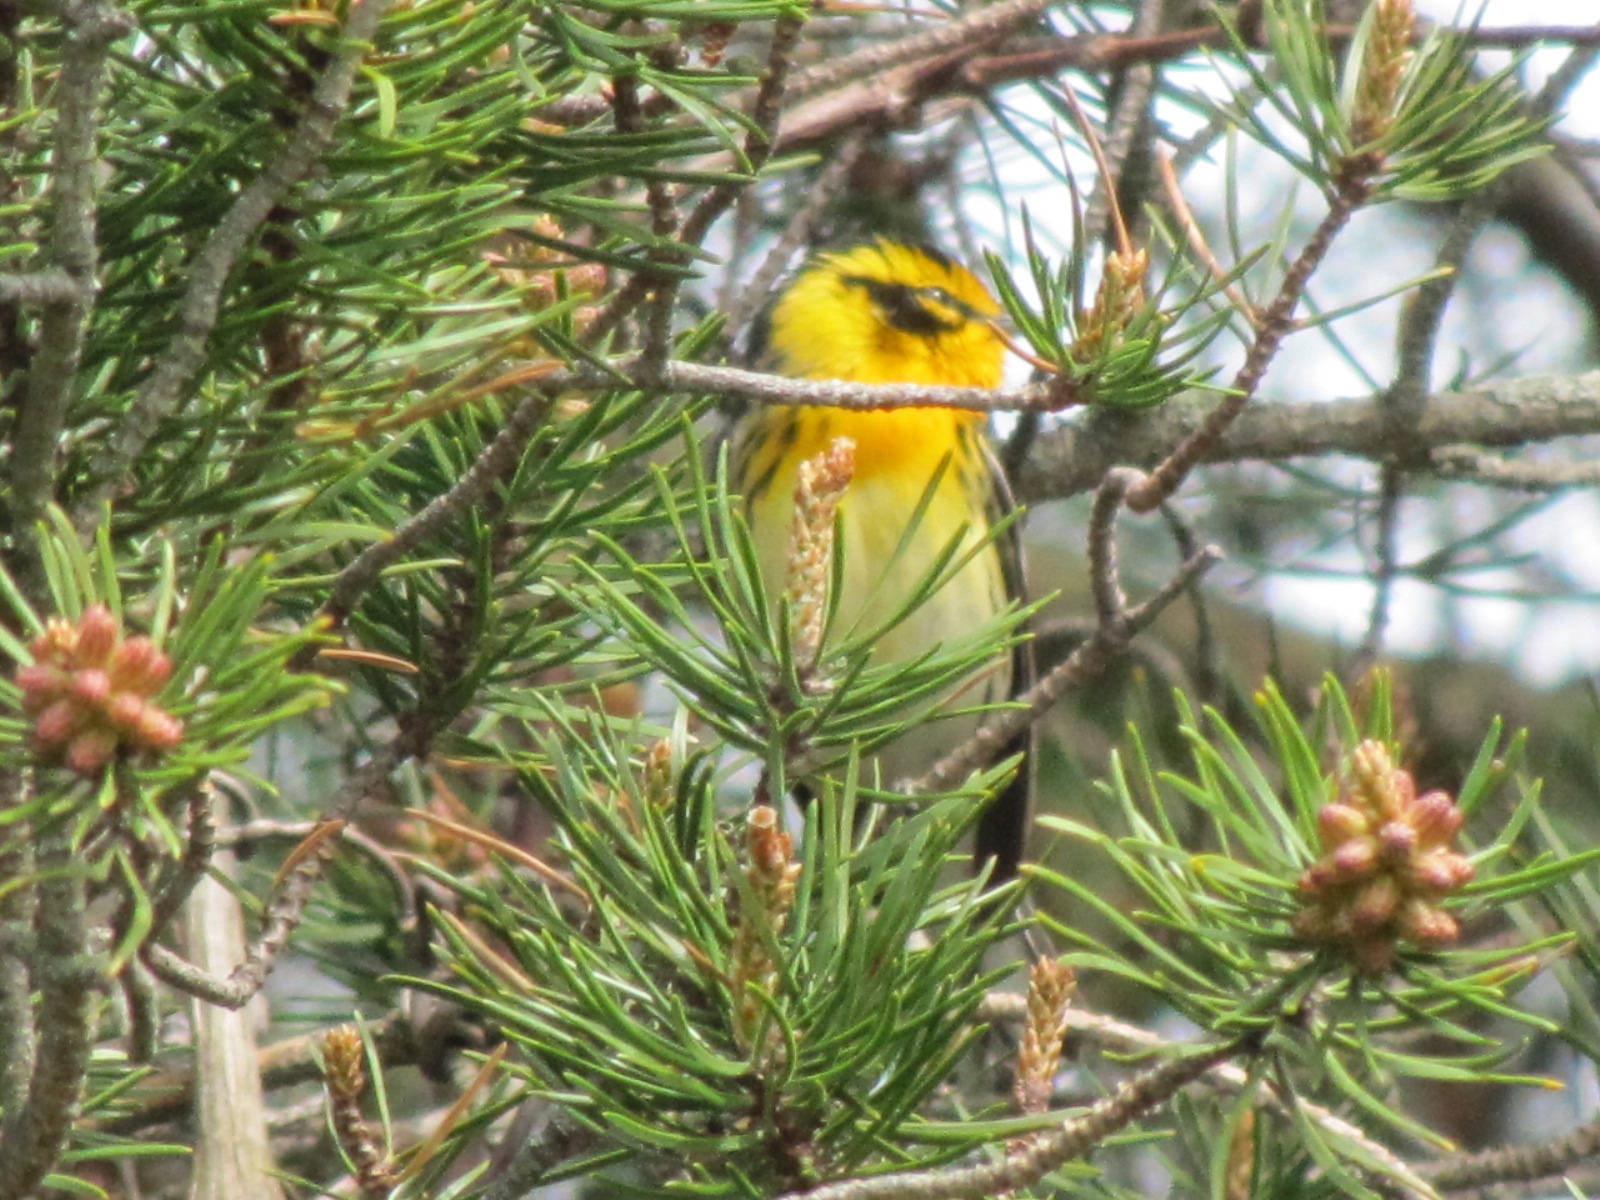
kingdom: Animalia
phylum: Chordata
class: Aves
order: Passeriformes
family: Parulidae
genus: Setophaga
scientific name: Setophaga fusca
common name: Blackburnian warbler
